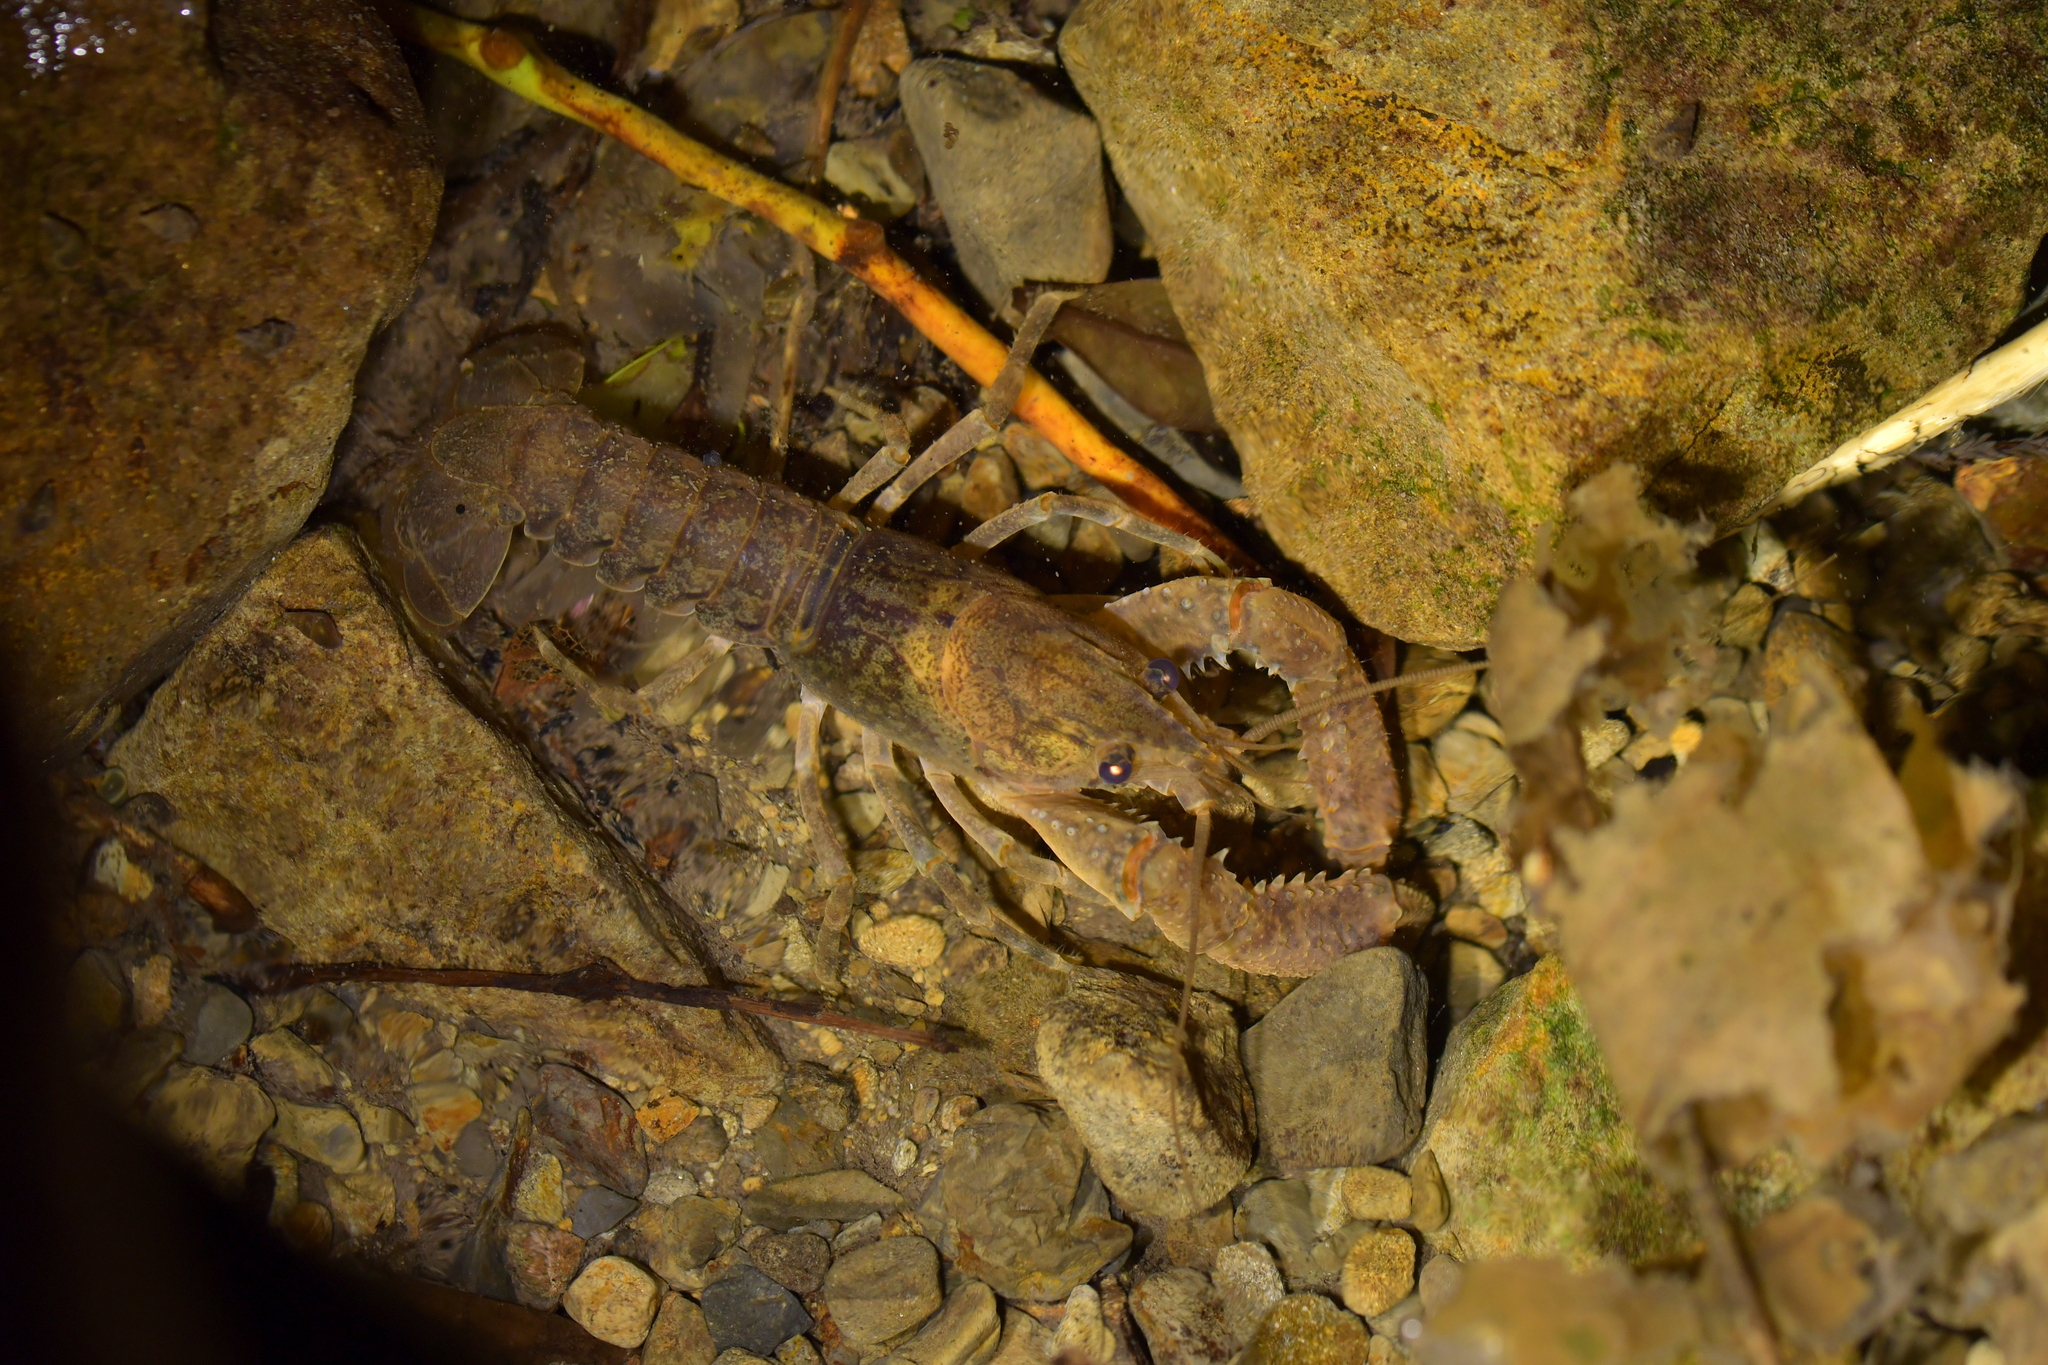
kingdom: Animalia
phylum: Arthropoda
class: Malacostraca
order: Decapoda
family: Parastacidae
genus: Paranephrops
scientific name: Paranephrops planifrons
